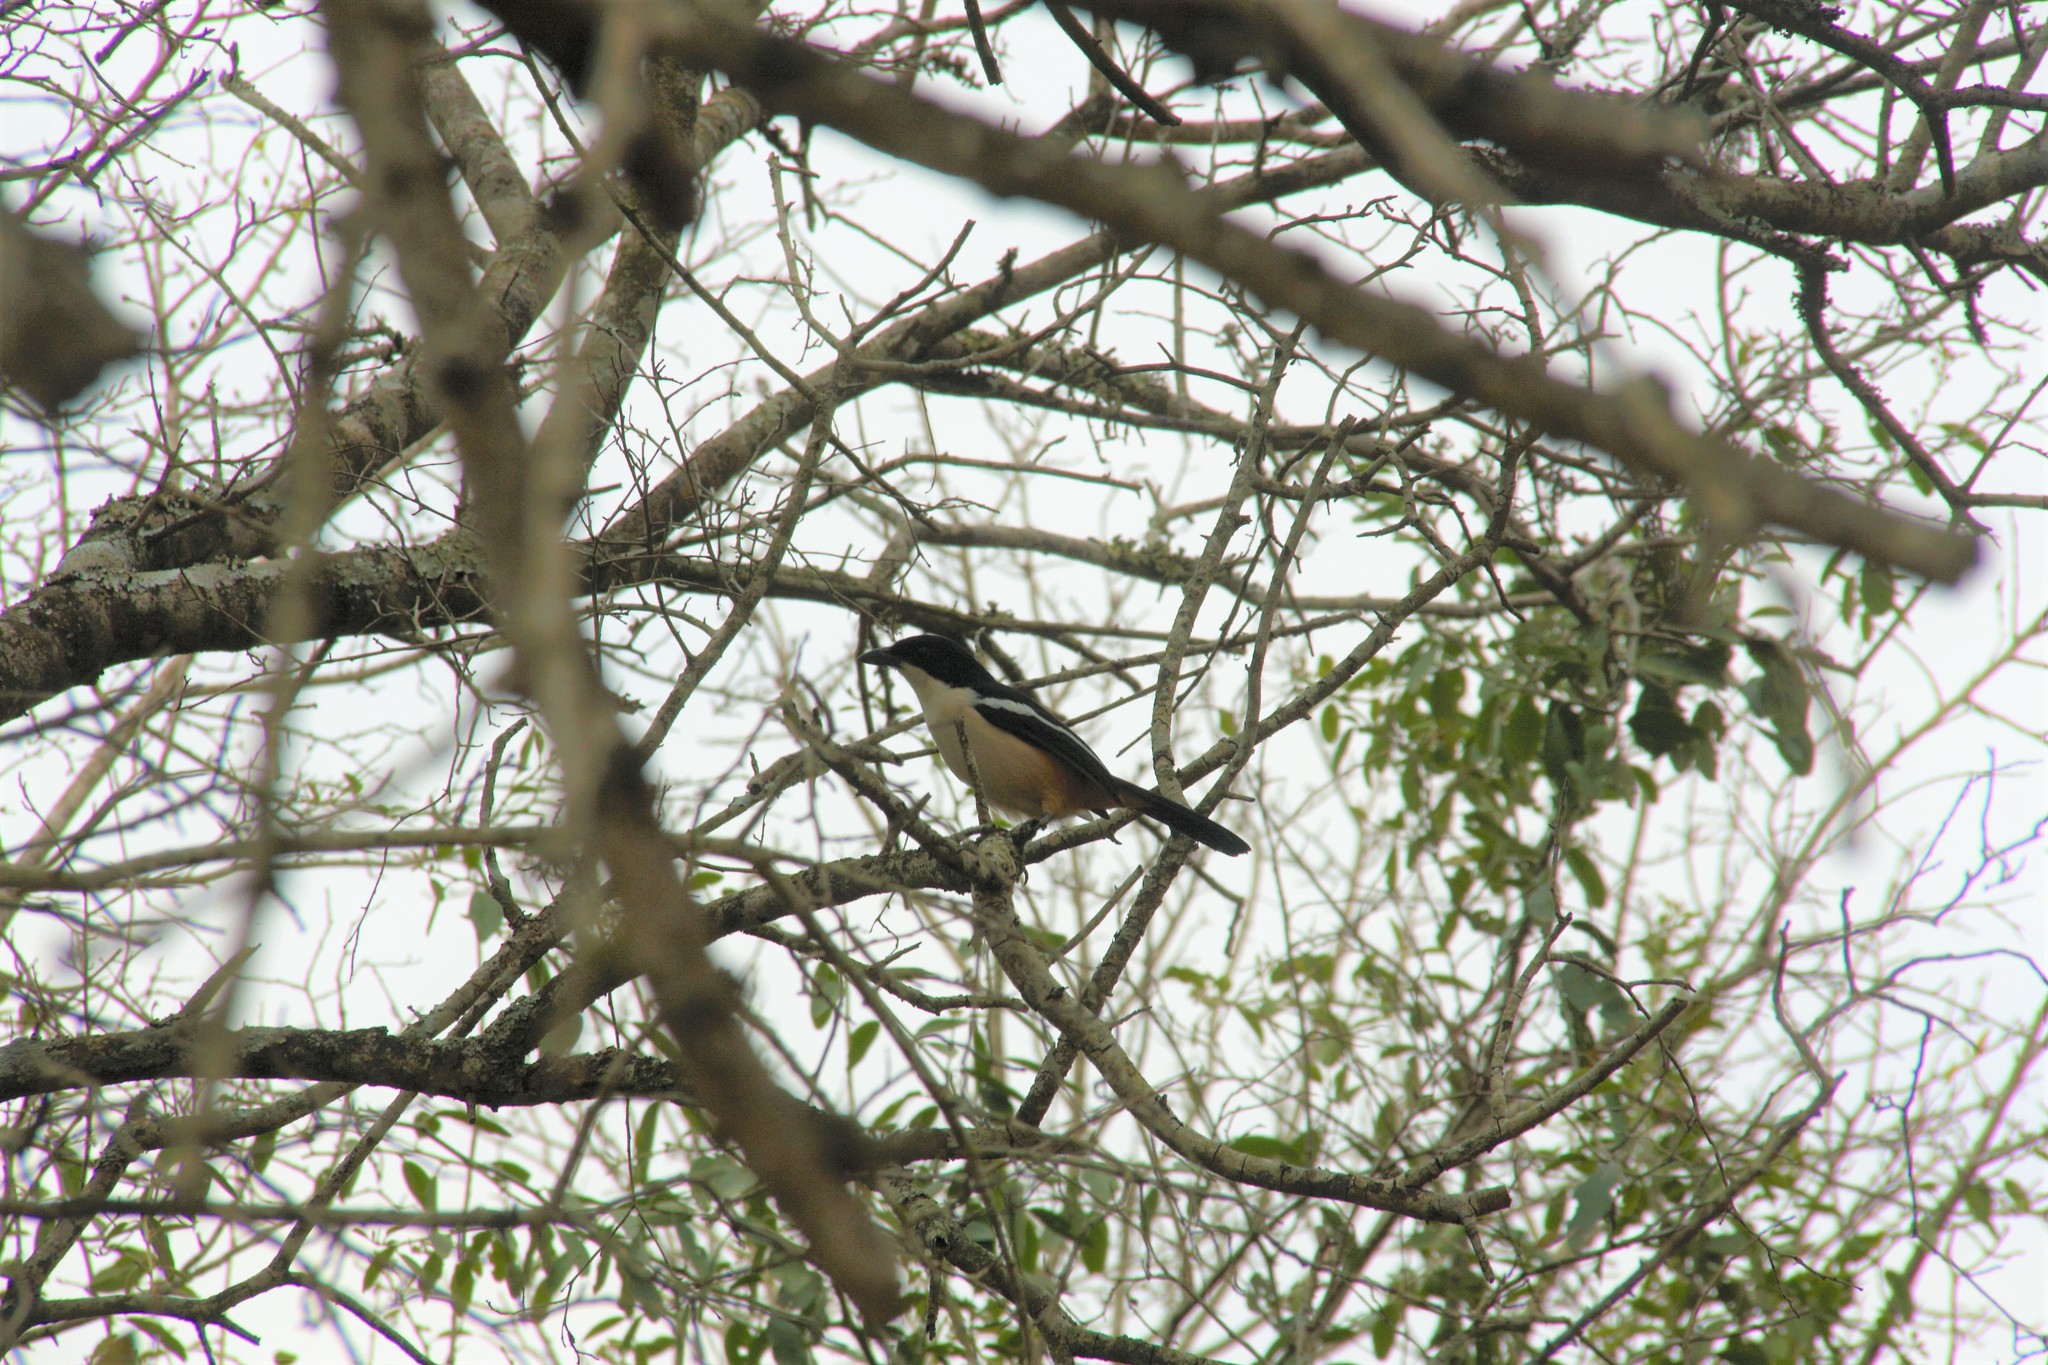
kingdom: Animalia
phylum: Chordata
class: Aves
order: Passeriformes
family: Malaconotidae
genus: Laniarius
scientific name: Laniarius ferrugineus
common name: Southern boubou
